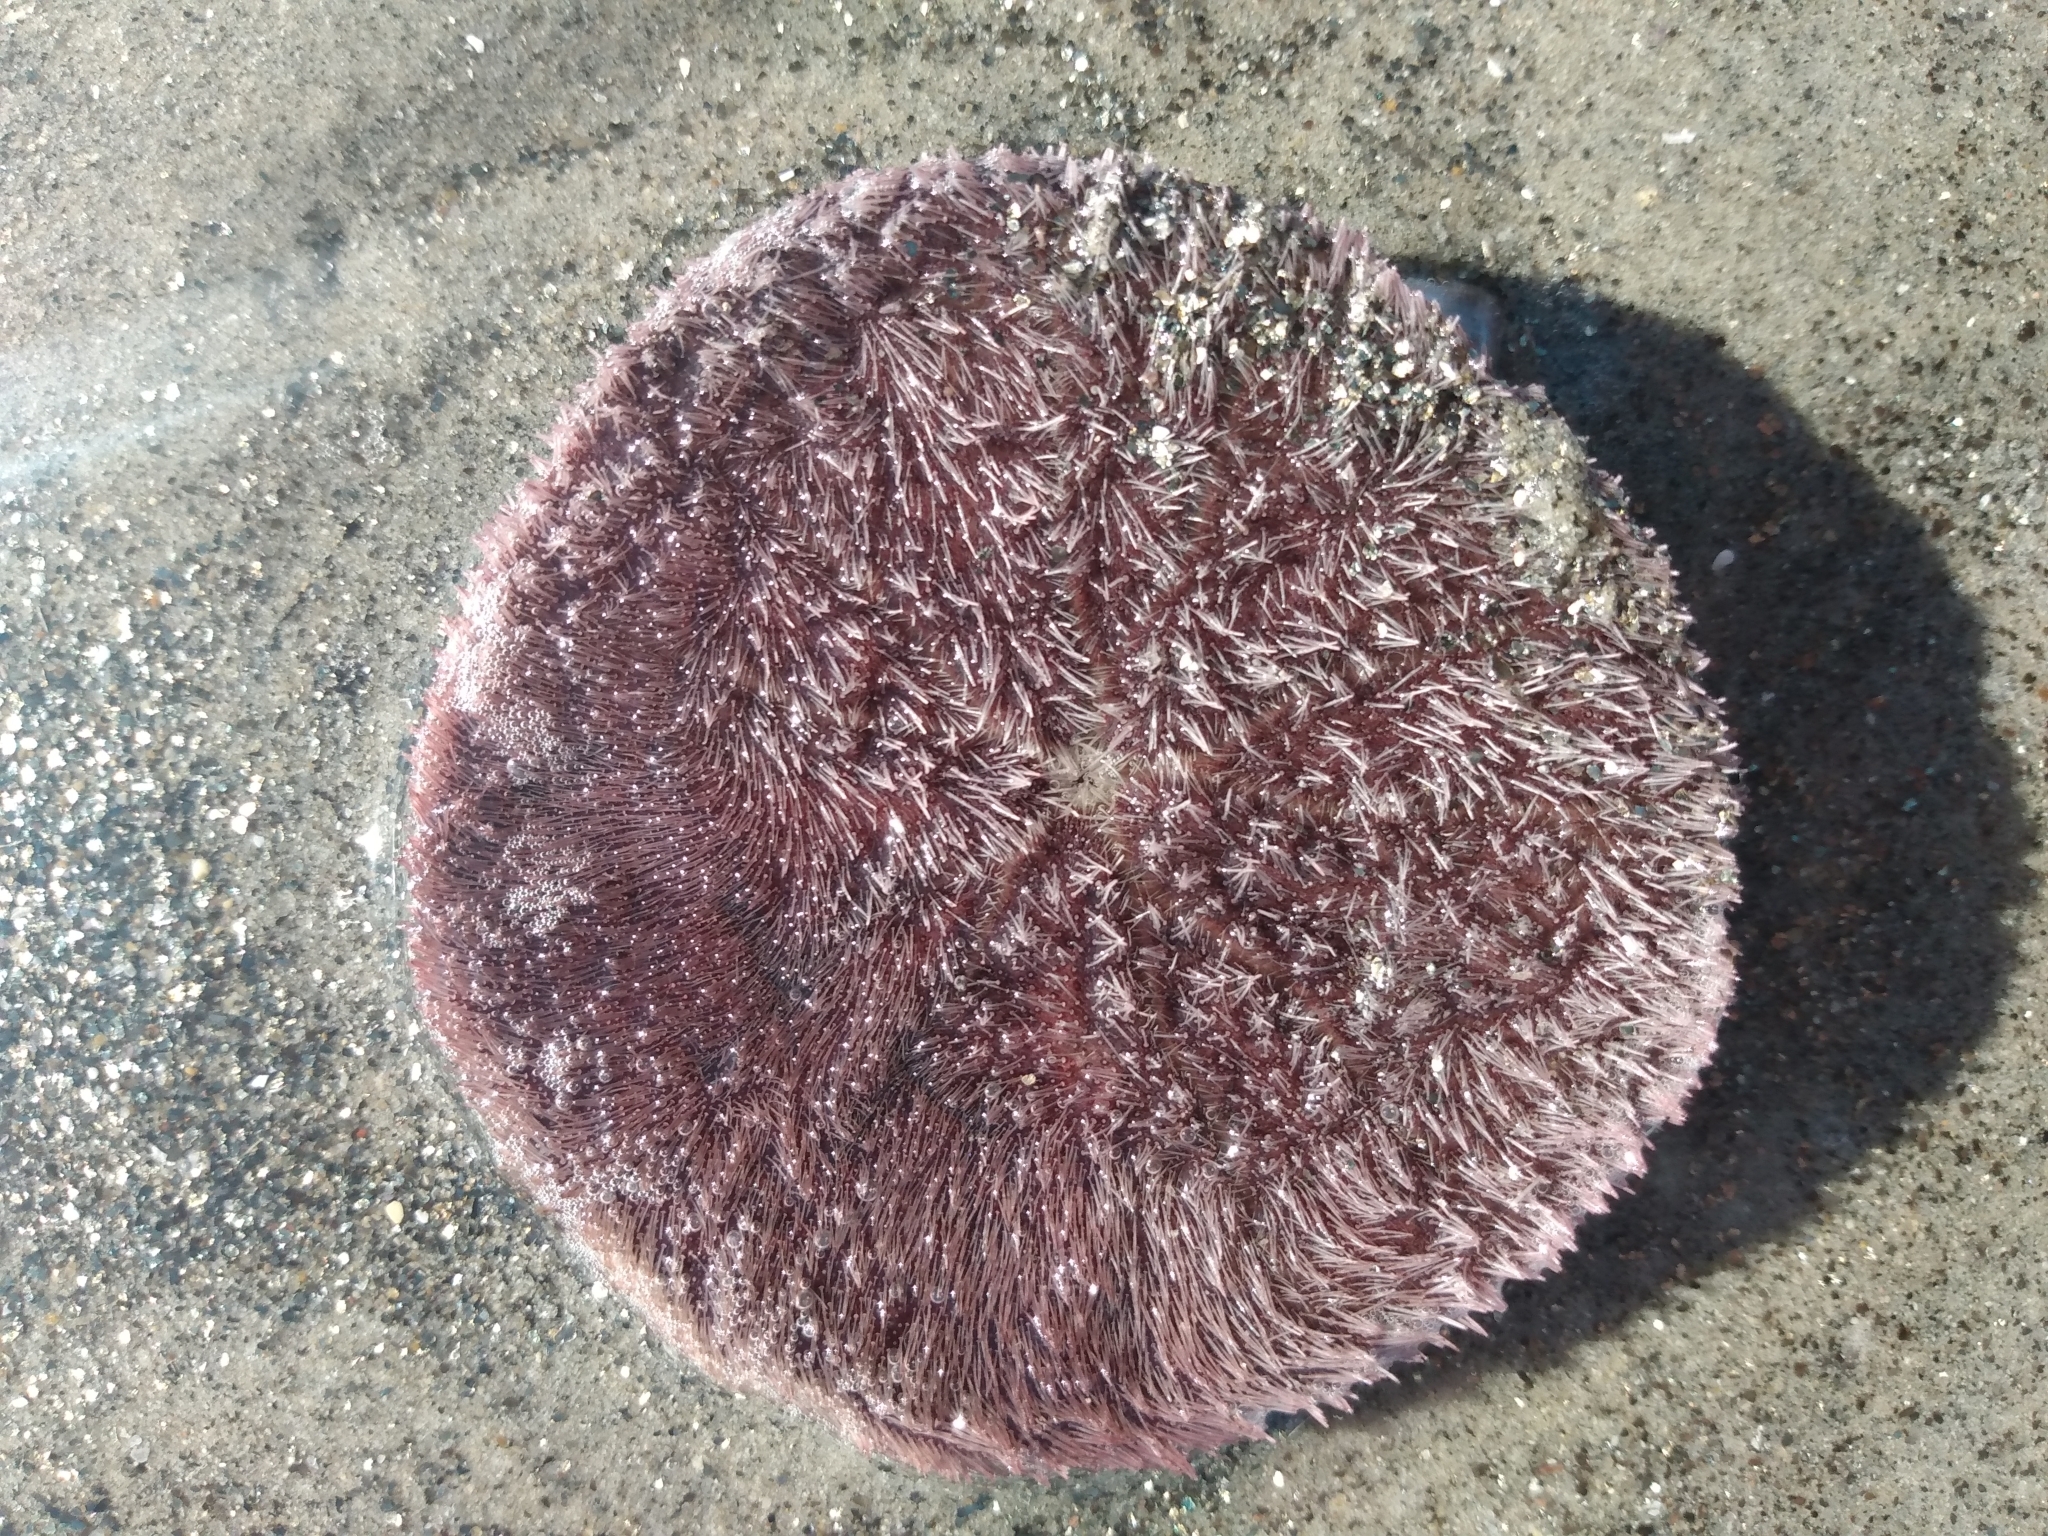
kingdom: Animalia
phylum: Echinodermata
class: Echinoidea
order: Echinolampadacea
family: Dendrasteridae
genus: Dendraster
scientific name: Dendraster excentricus
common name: Eccentric sand dollar sea urchin
